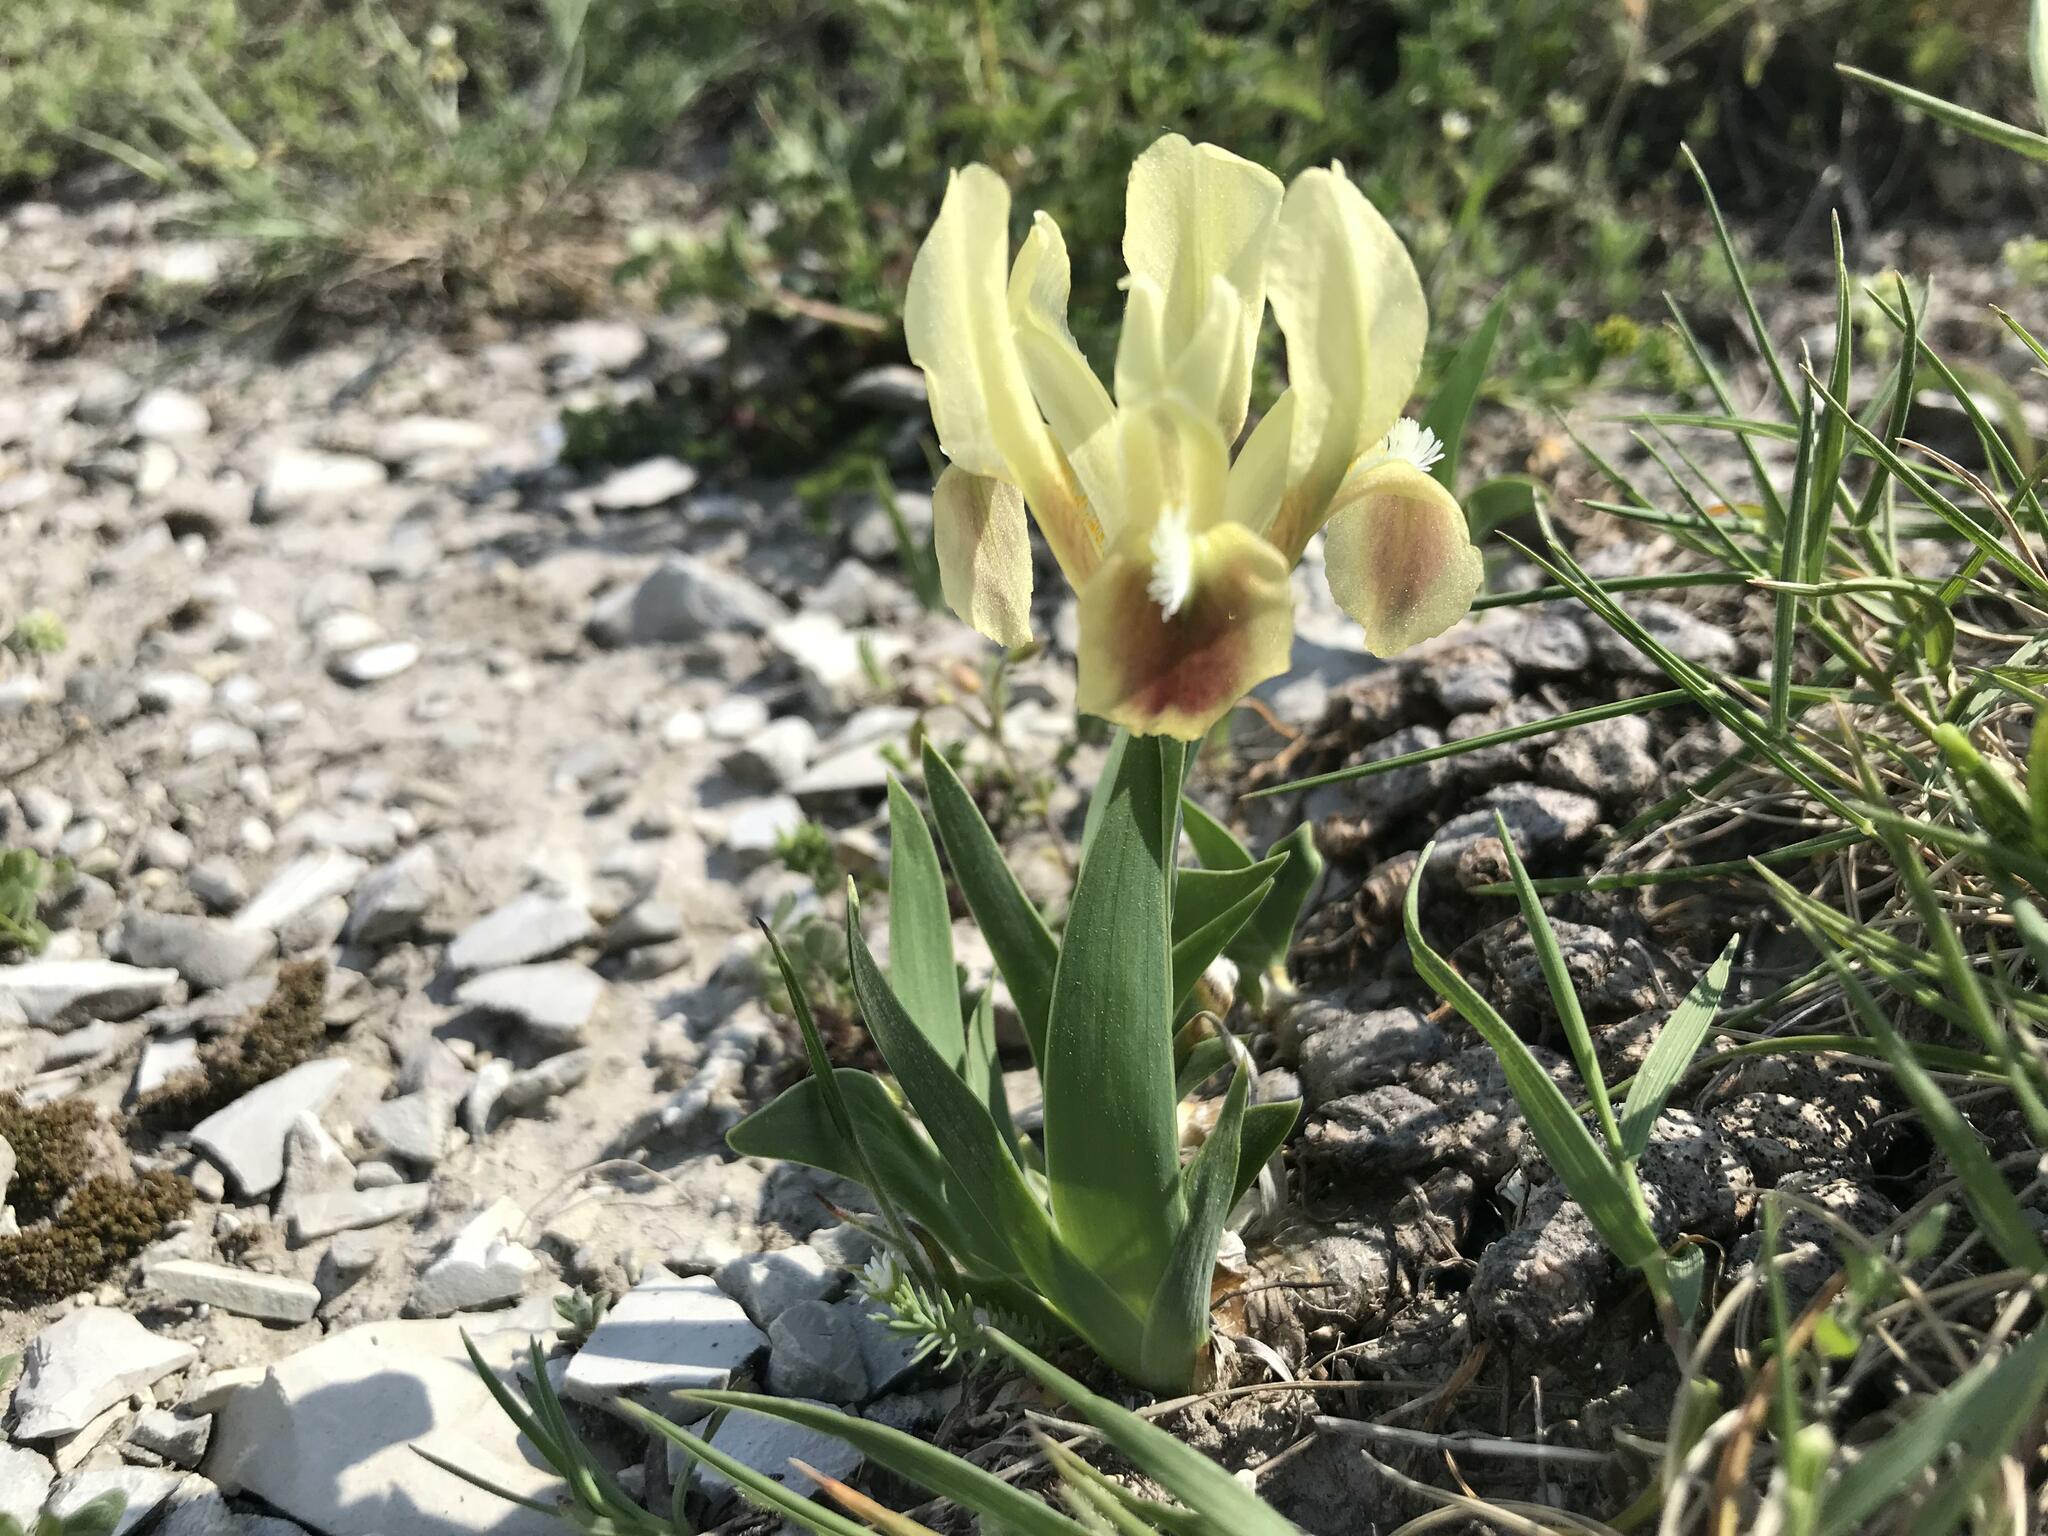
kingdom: Plantae
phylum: Tracheophyta
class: Liliopsida
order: Asparagales
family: Iridaceae
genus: Iris
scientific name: Iris pumila
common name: Dwarf iris
